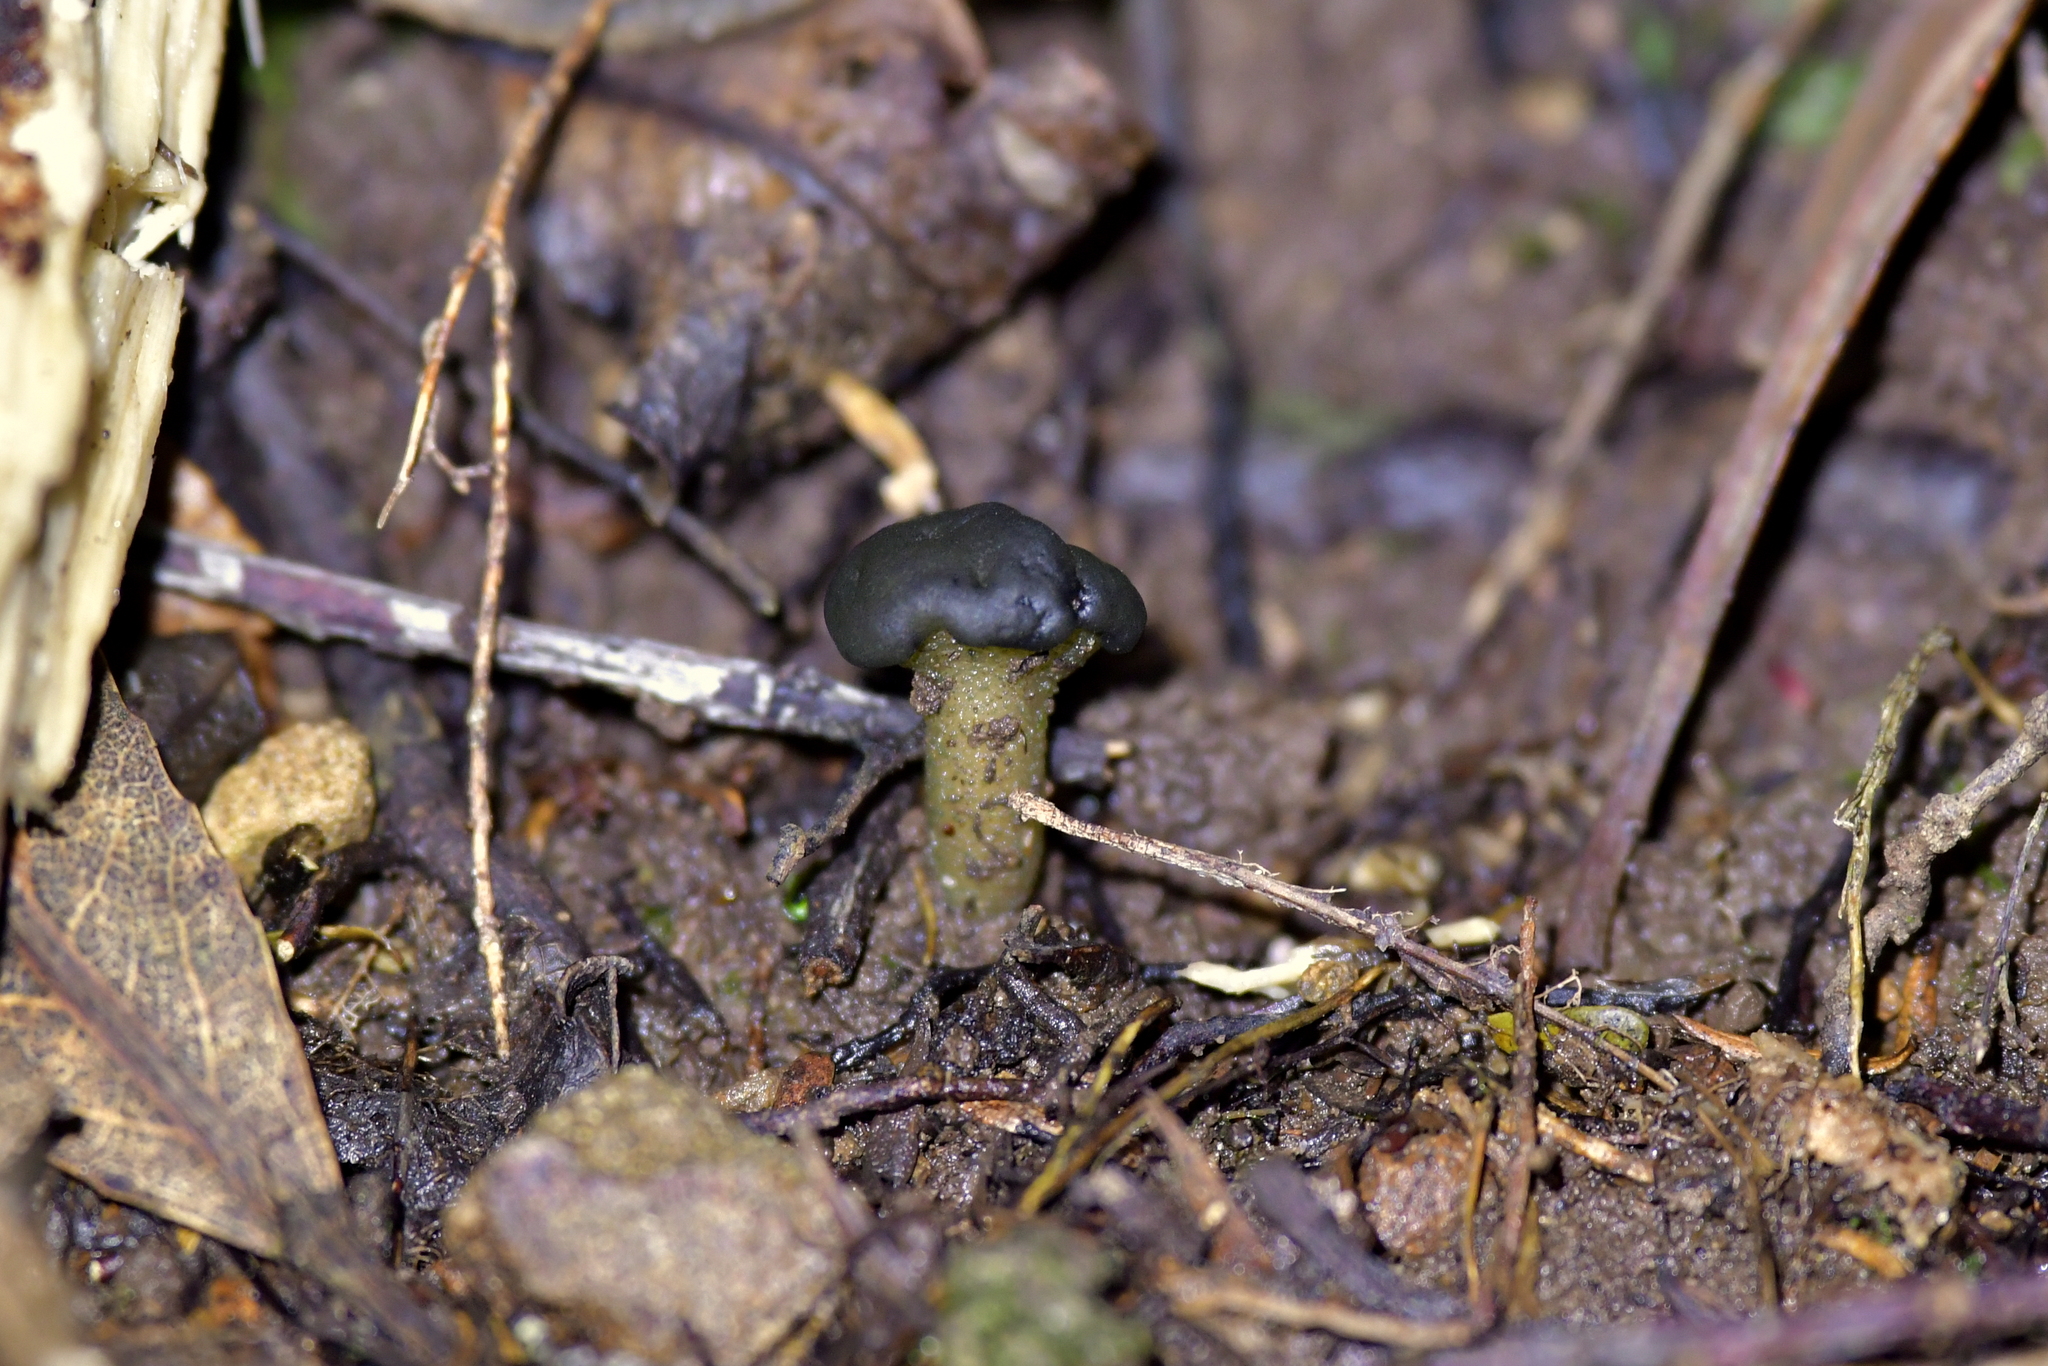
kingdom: Fungi
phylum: Ascomycota
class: Leotiomycetes
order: Leotiales
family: Leotiaceae
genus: Leotia
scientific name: Leotia lubrica
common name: Jellybaby
